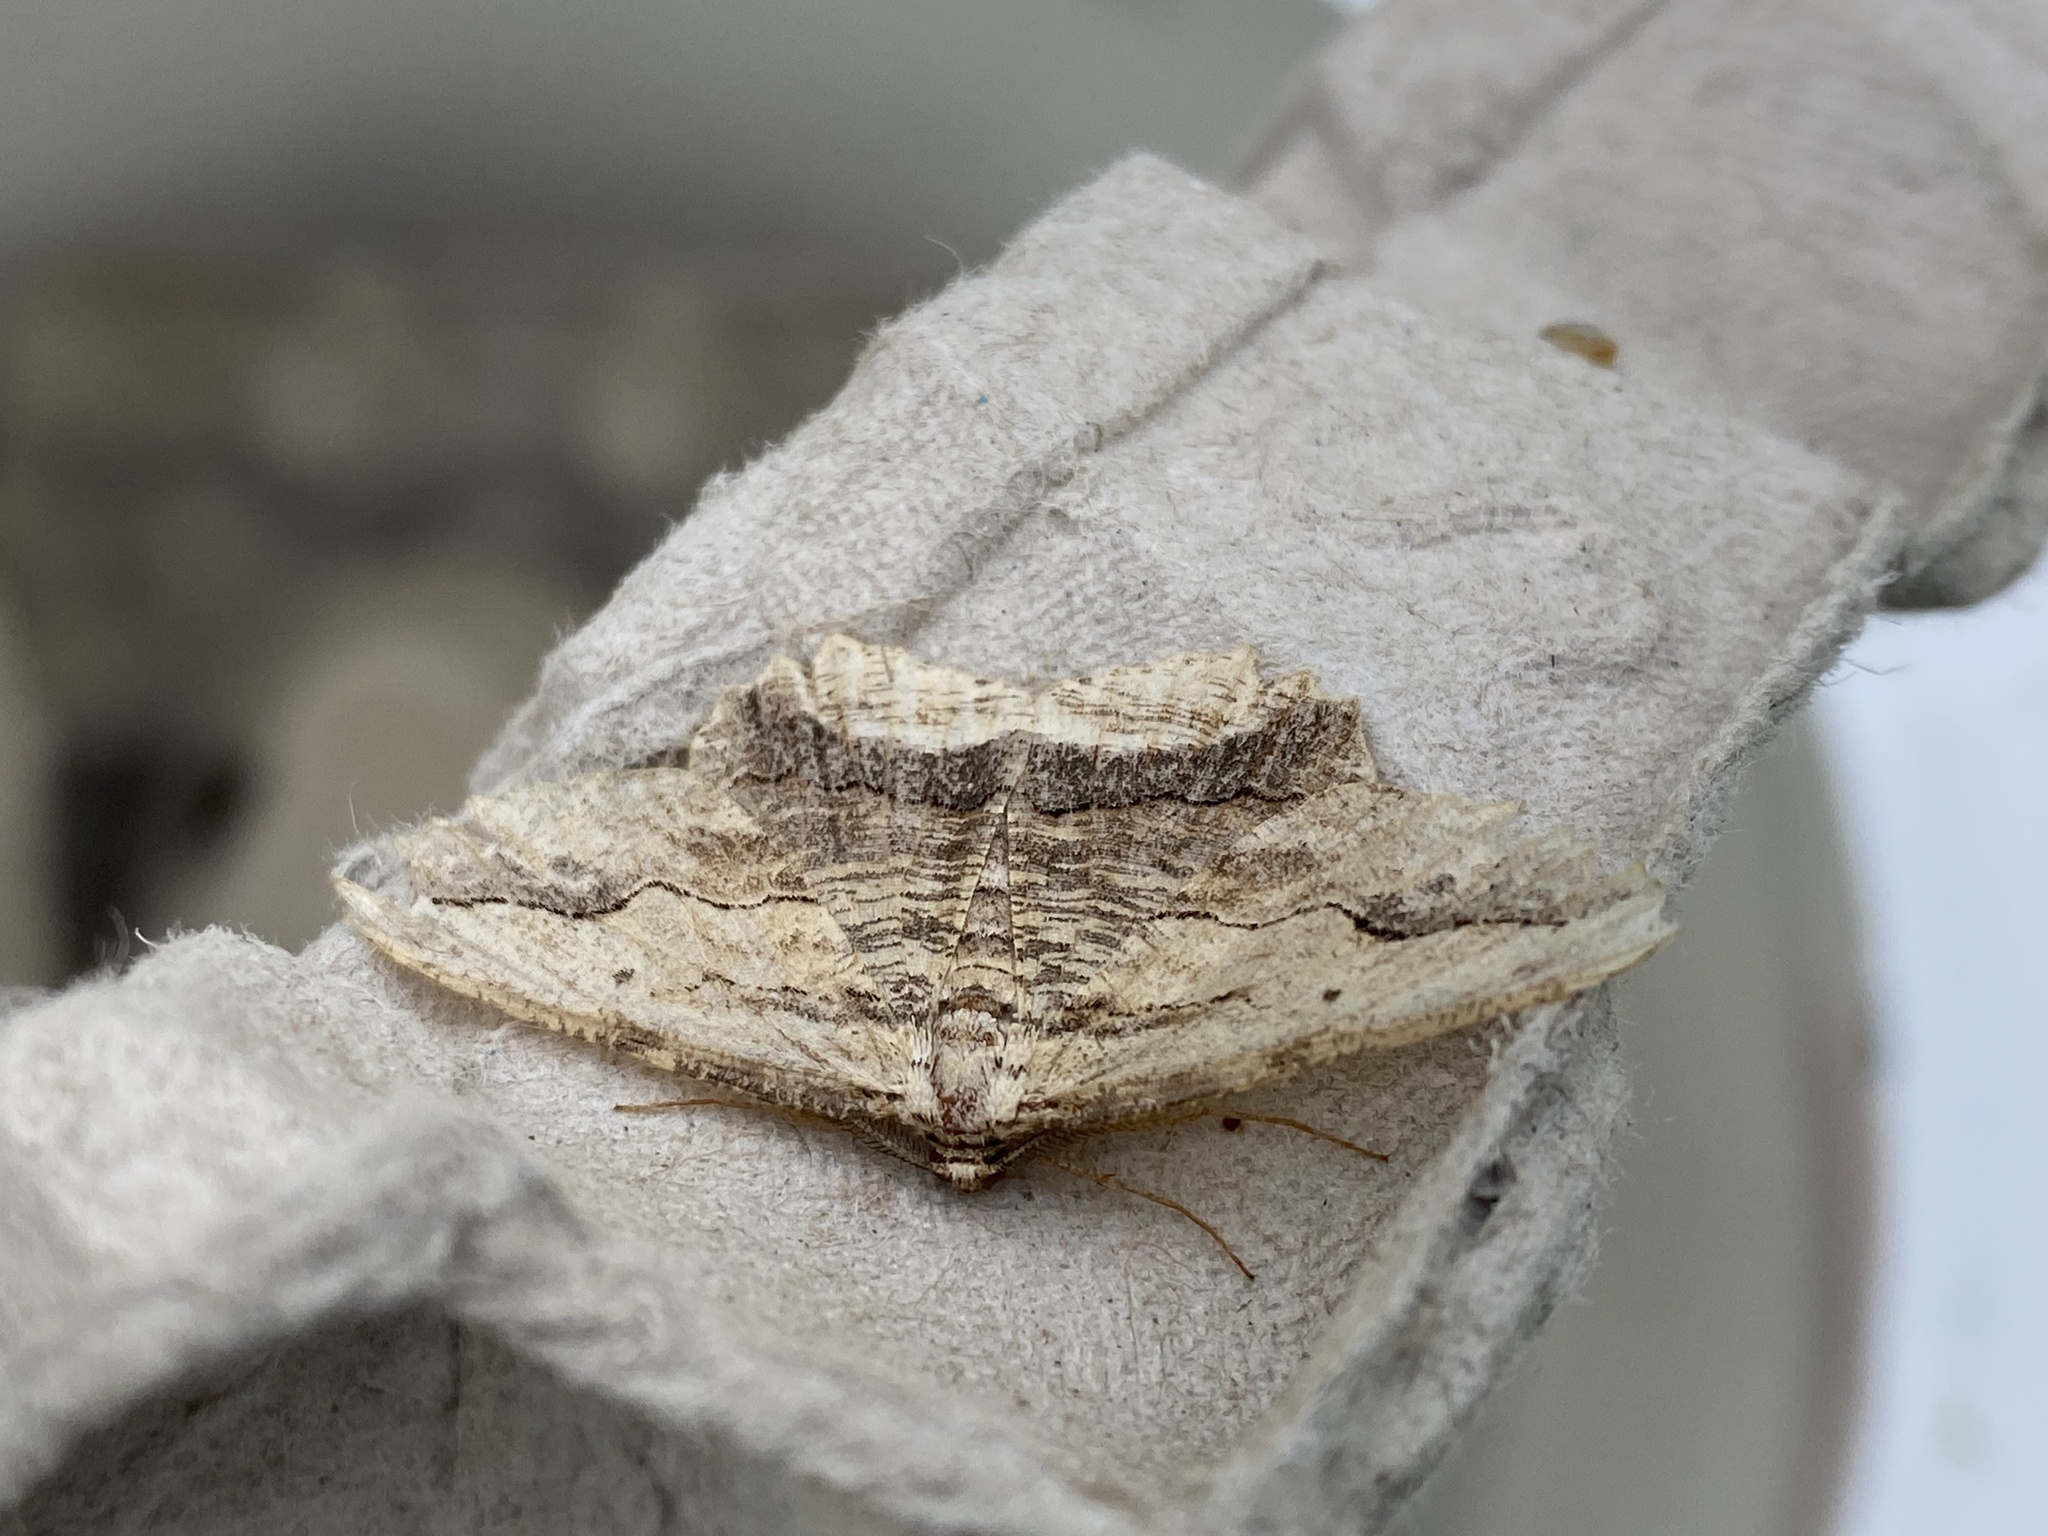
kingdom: Animalia
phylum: Arthropoda
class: Insecta
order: Lepidoptera
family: Geometridae
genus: Menophra
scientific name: Menophra abruptaria
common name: Waved umber
